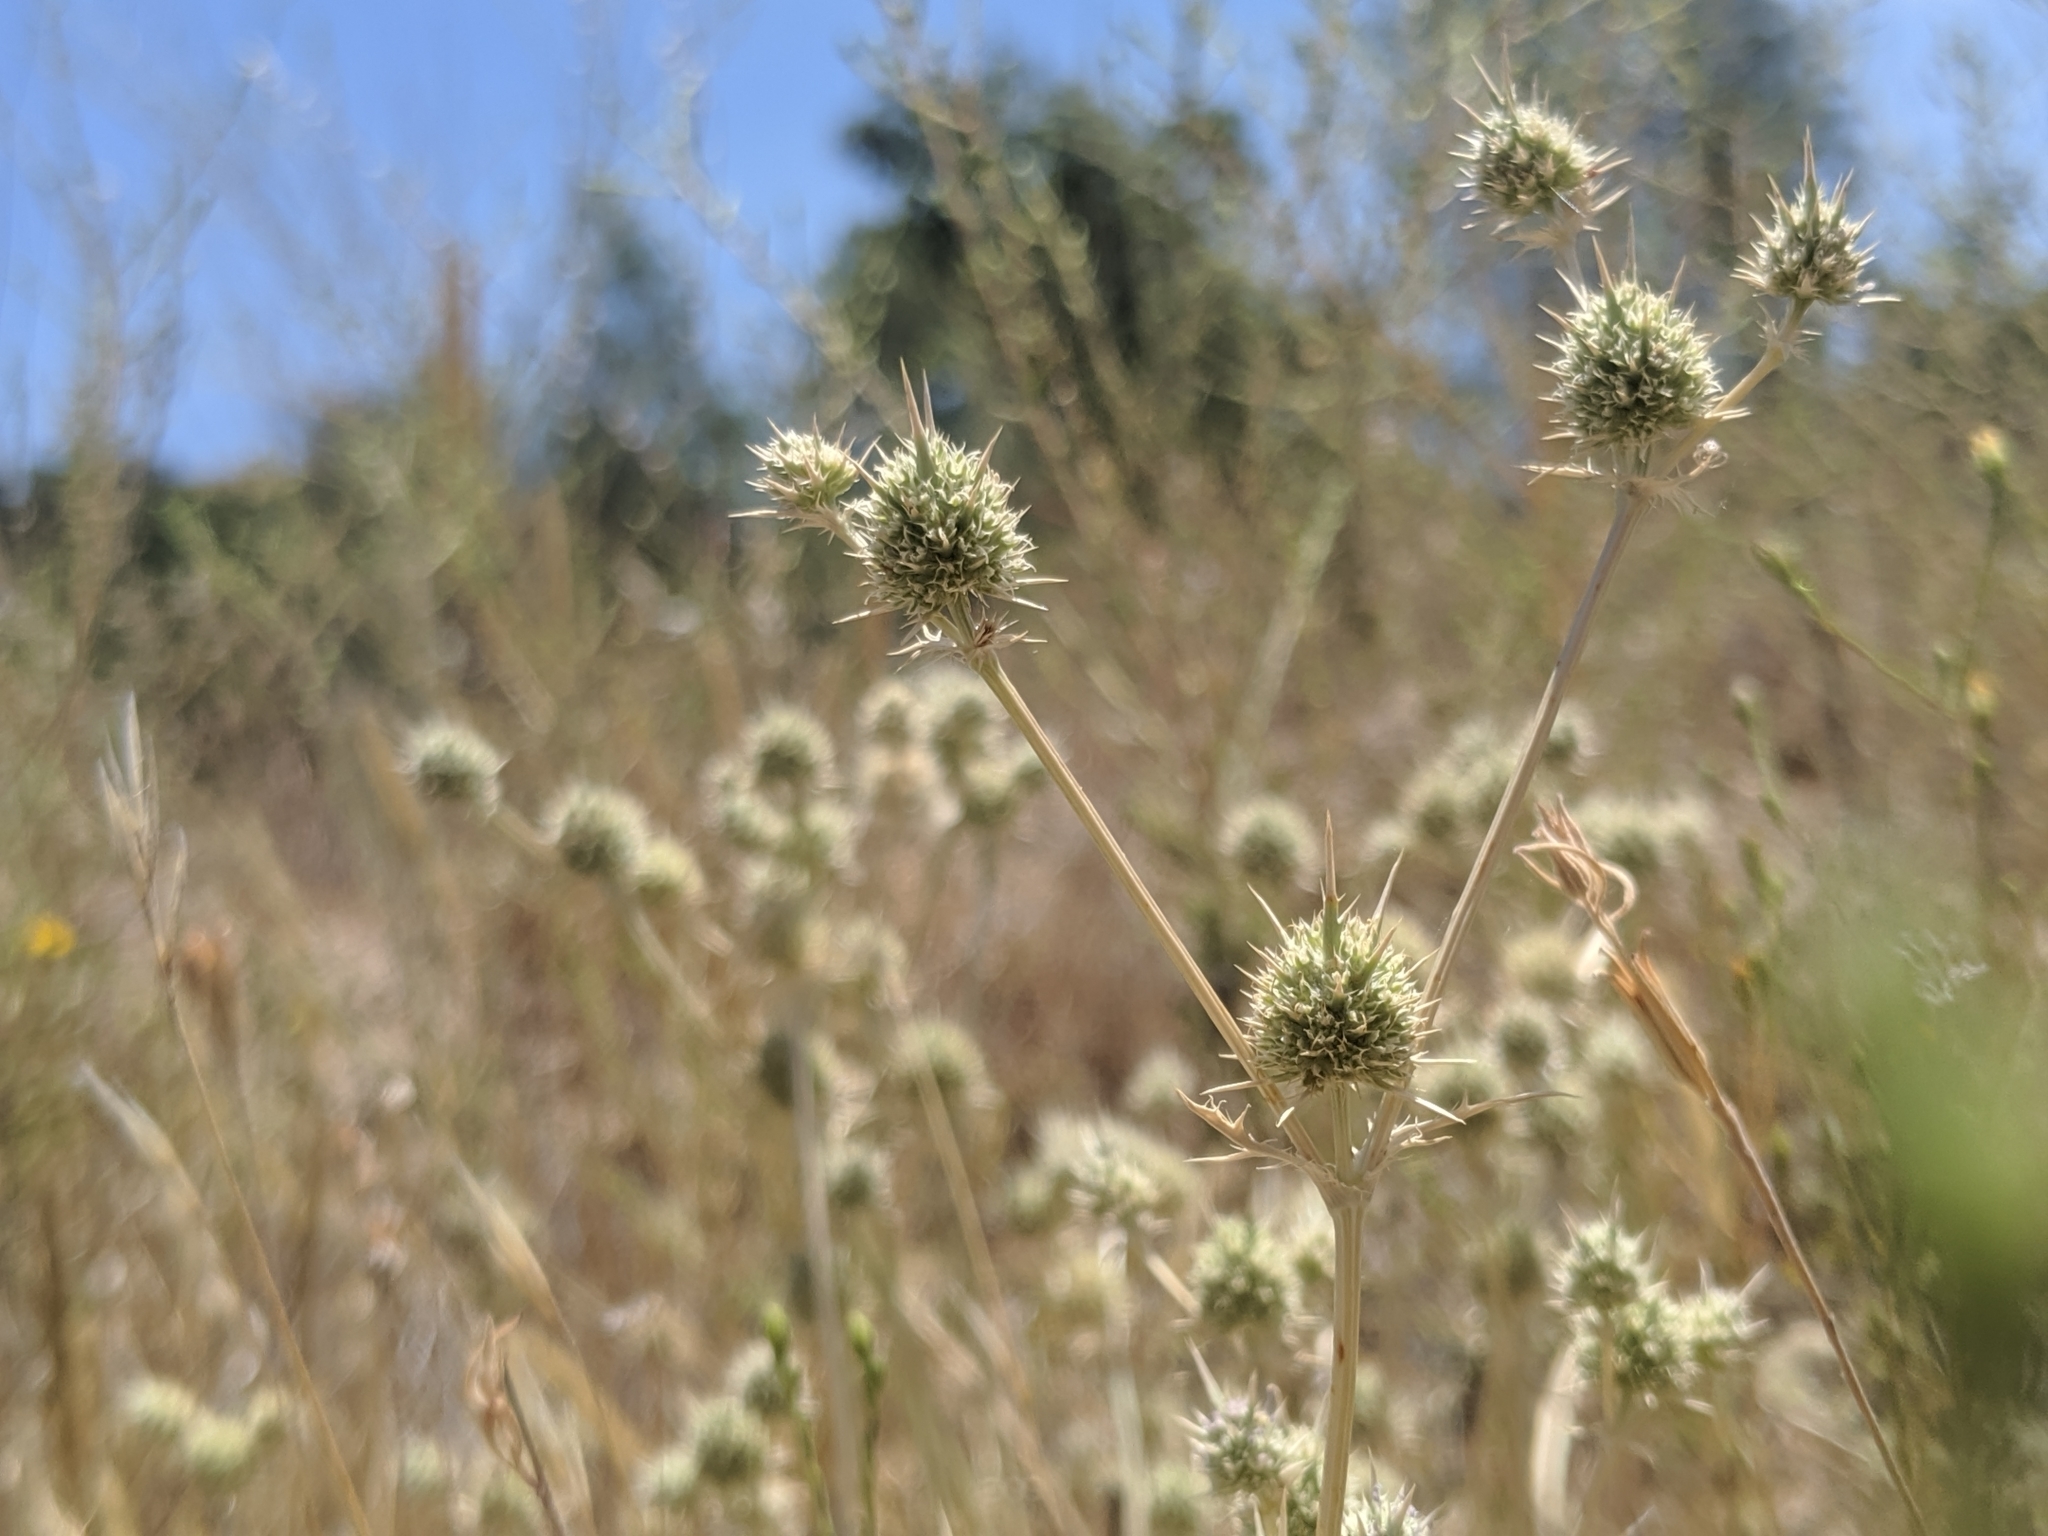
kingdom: Plantae
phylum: Tracheophyta
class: Magnoliopsida
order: Apiales
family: Apiaceae
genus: Eryngium
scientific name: Eryngium vaseyi
